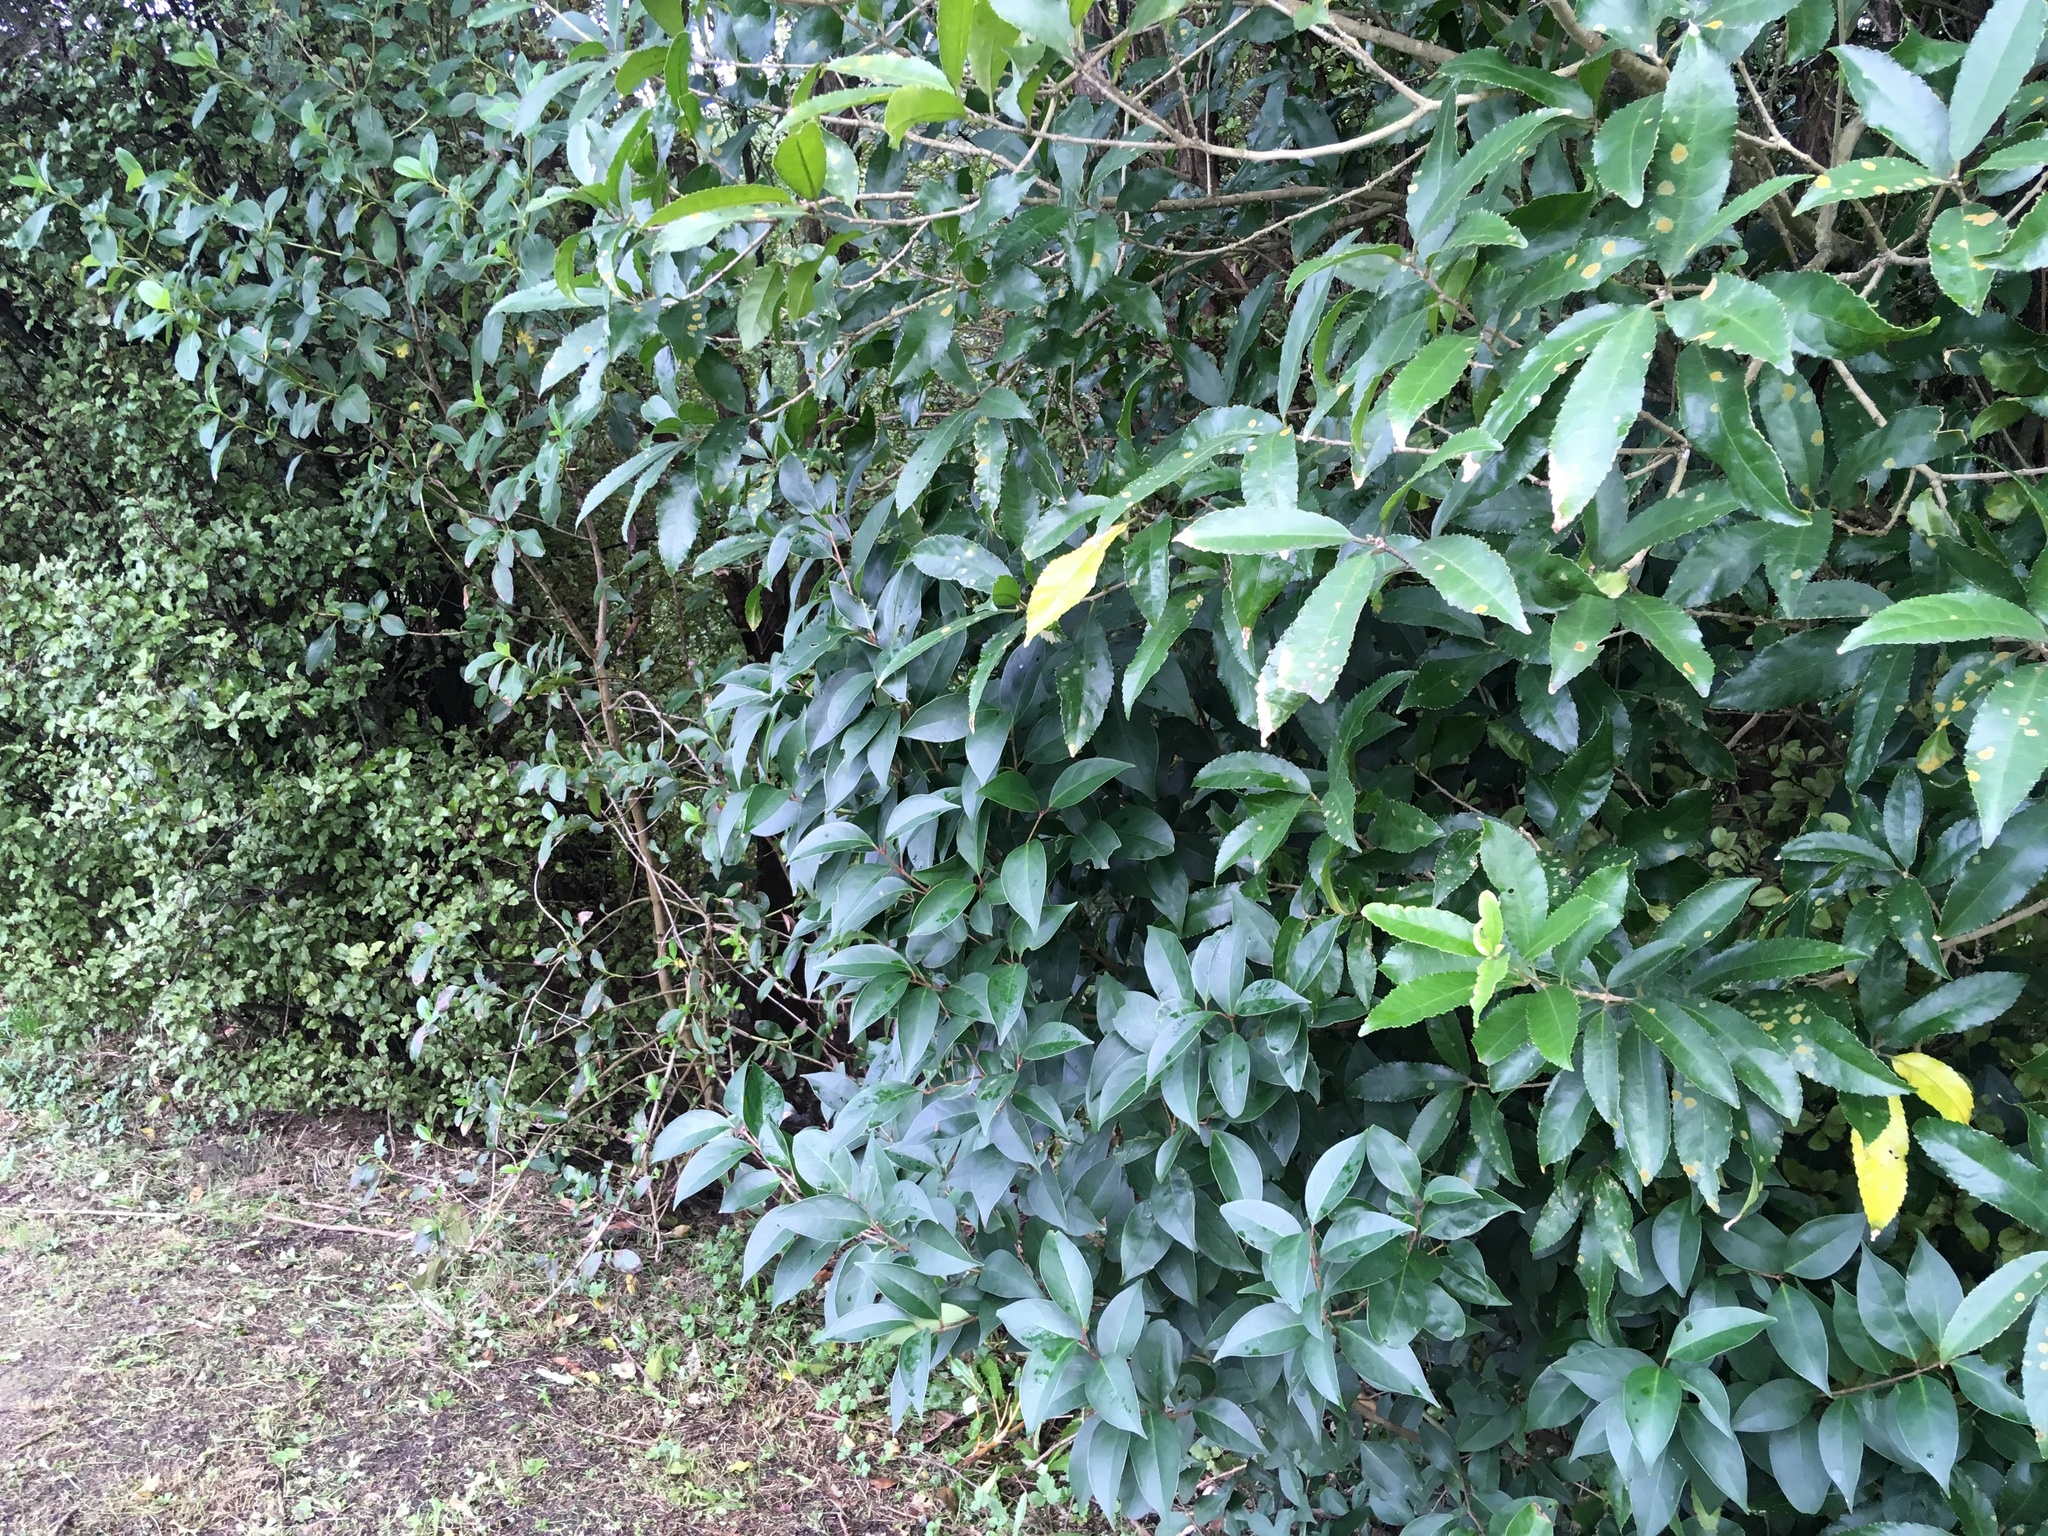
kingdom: Plantae
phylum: Tracheophyta
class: Magnoliopsida
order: Lamiales
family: Oleaceae
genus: Ligustrum
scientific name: Ligustrum lucidum
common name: Glossy privet
